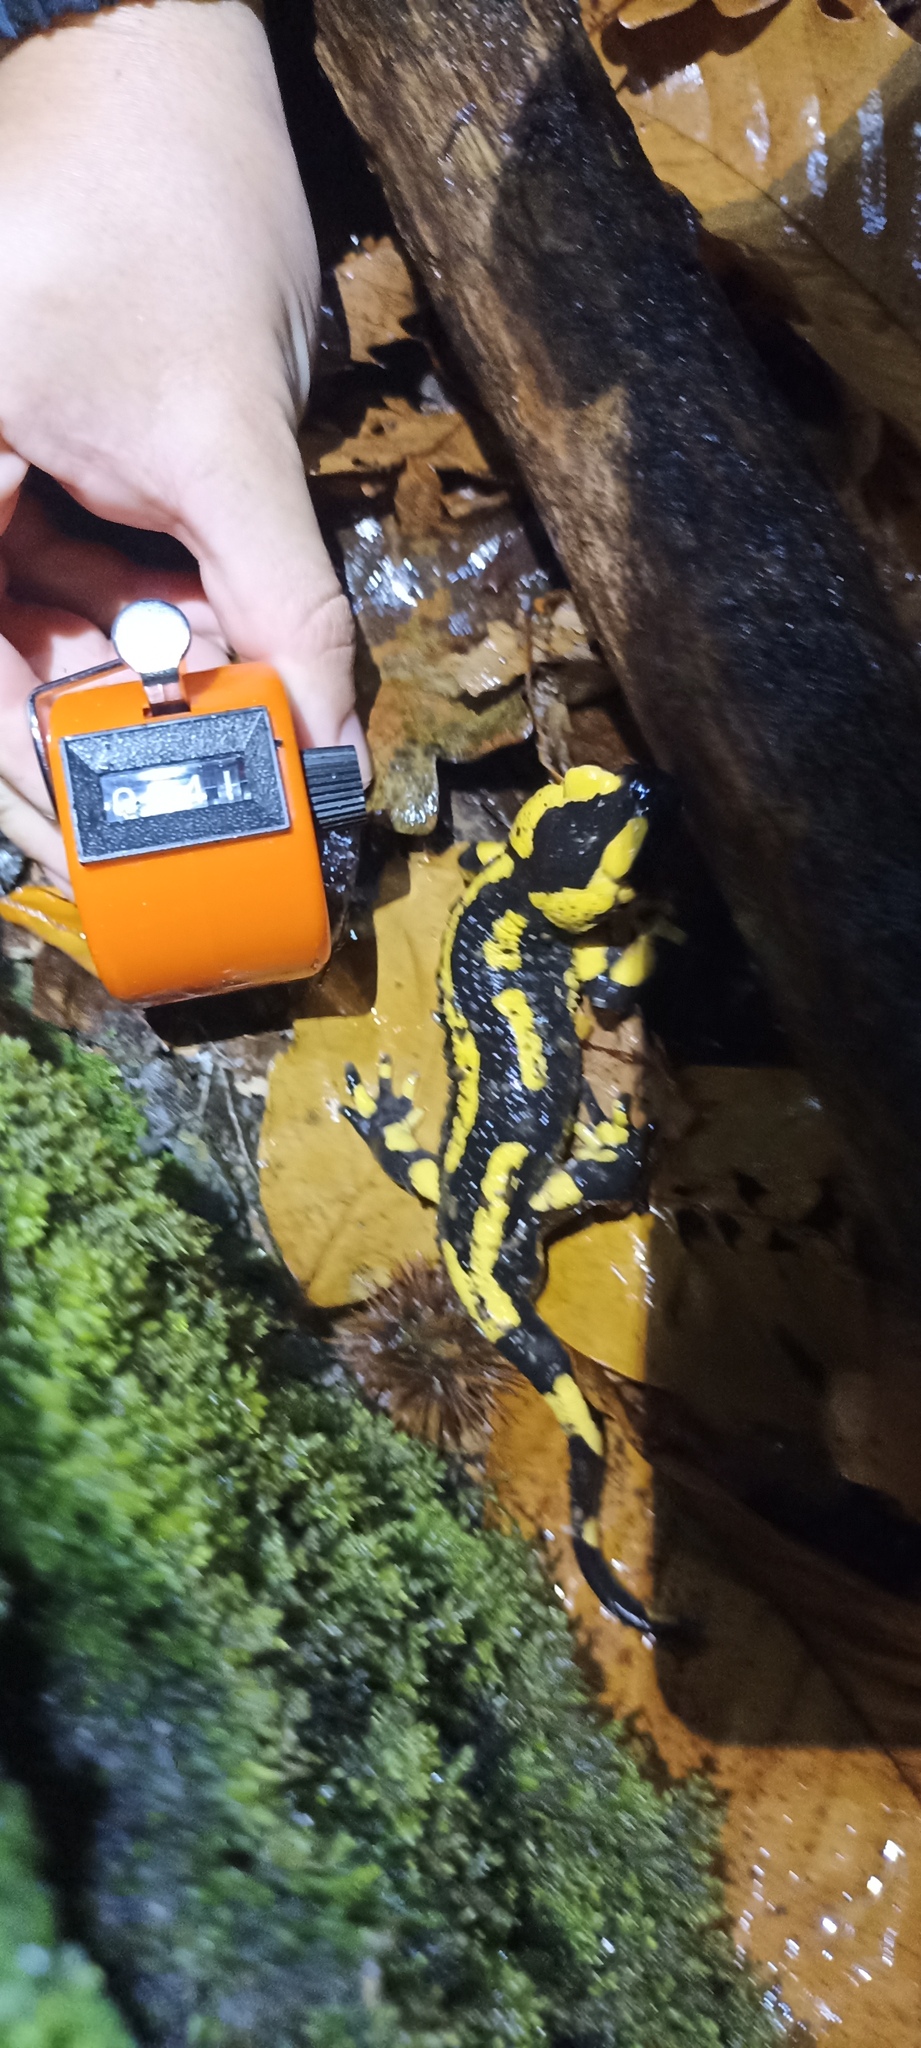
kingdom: Animalia
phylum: Chordata
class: Amphibia
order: Caudata
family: Salamandridae
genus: Salamandra
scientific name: Salamandra salamandra
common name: Fire salamander
